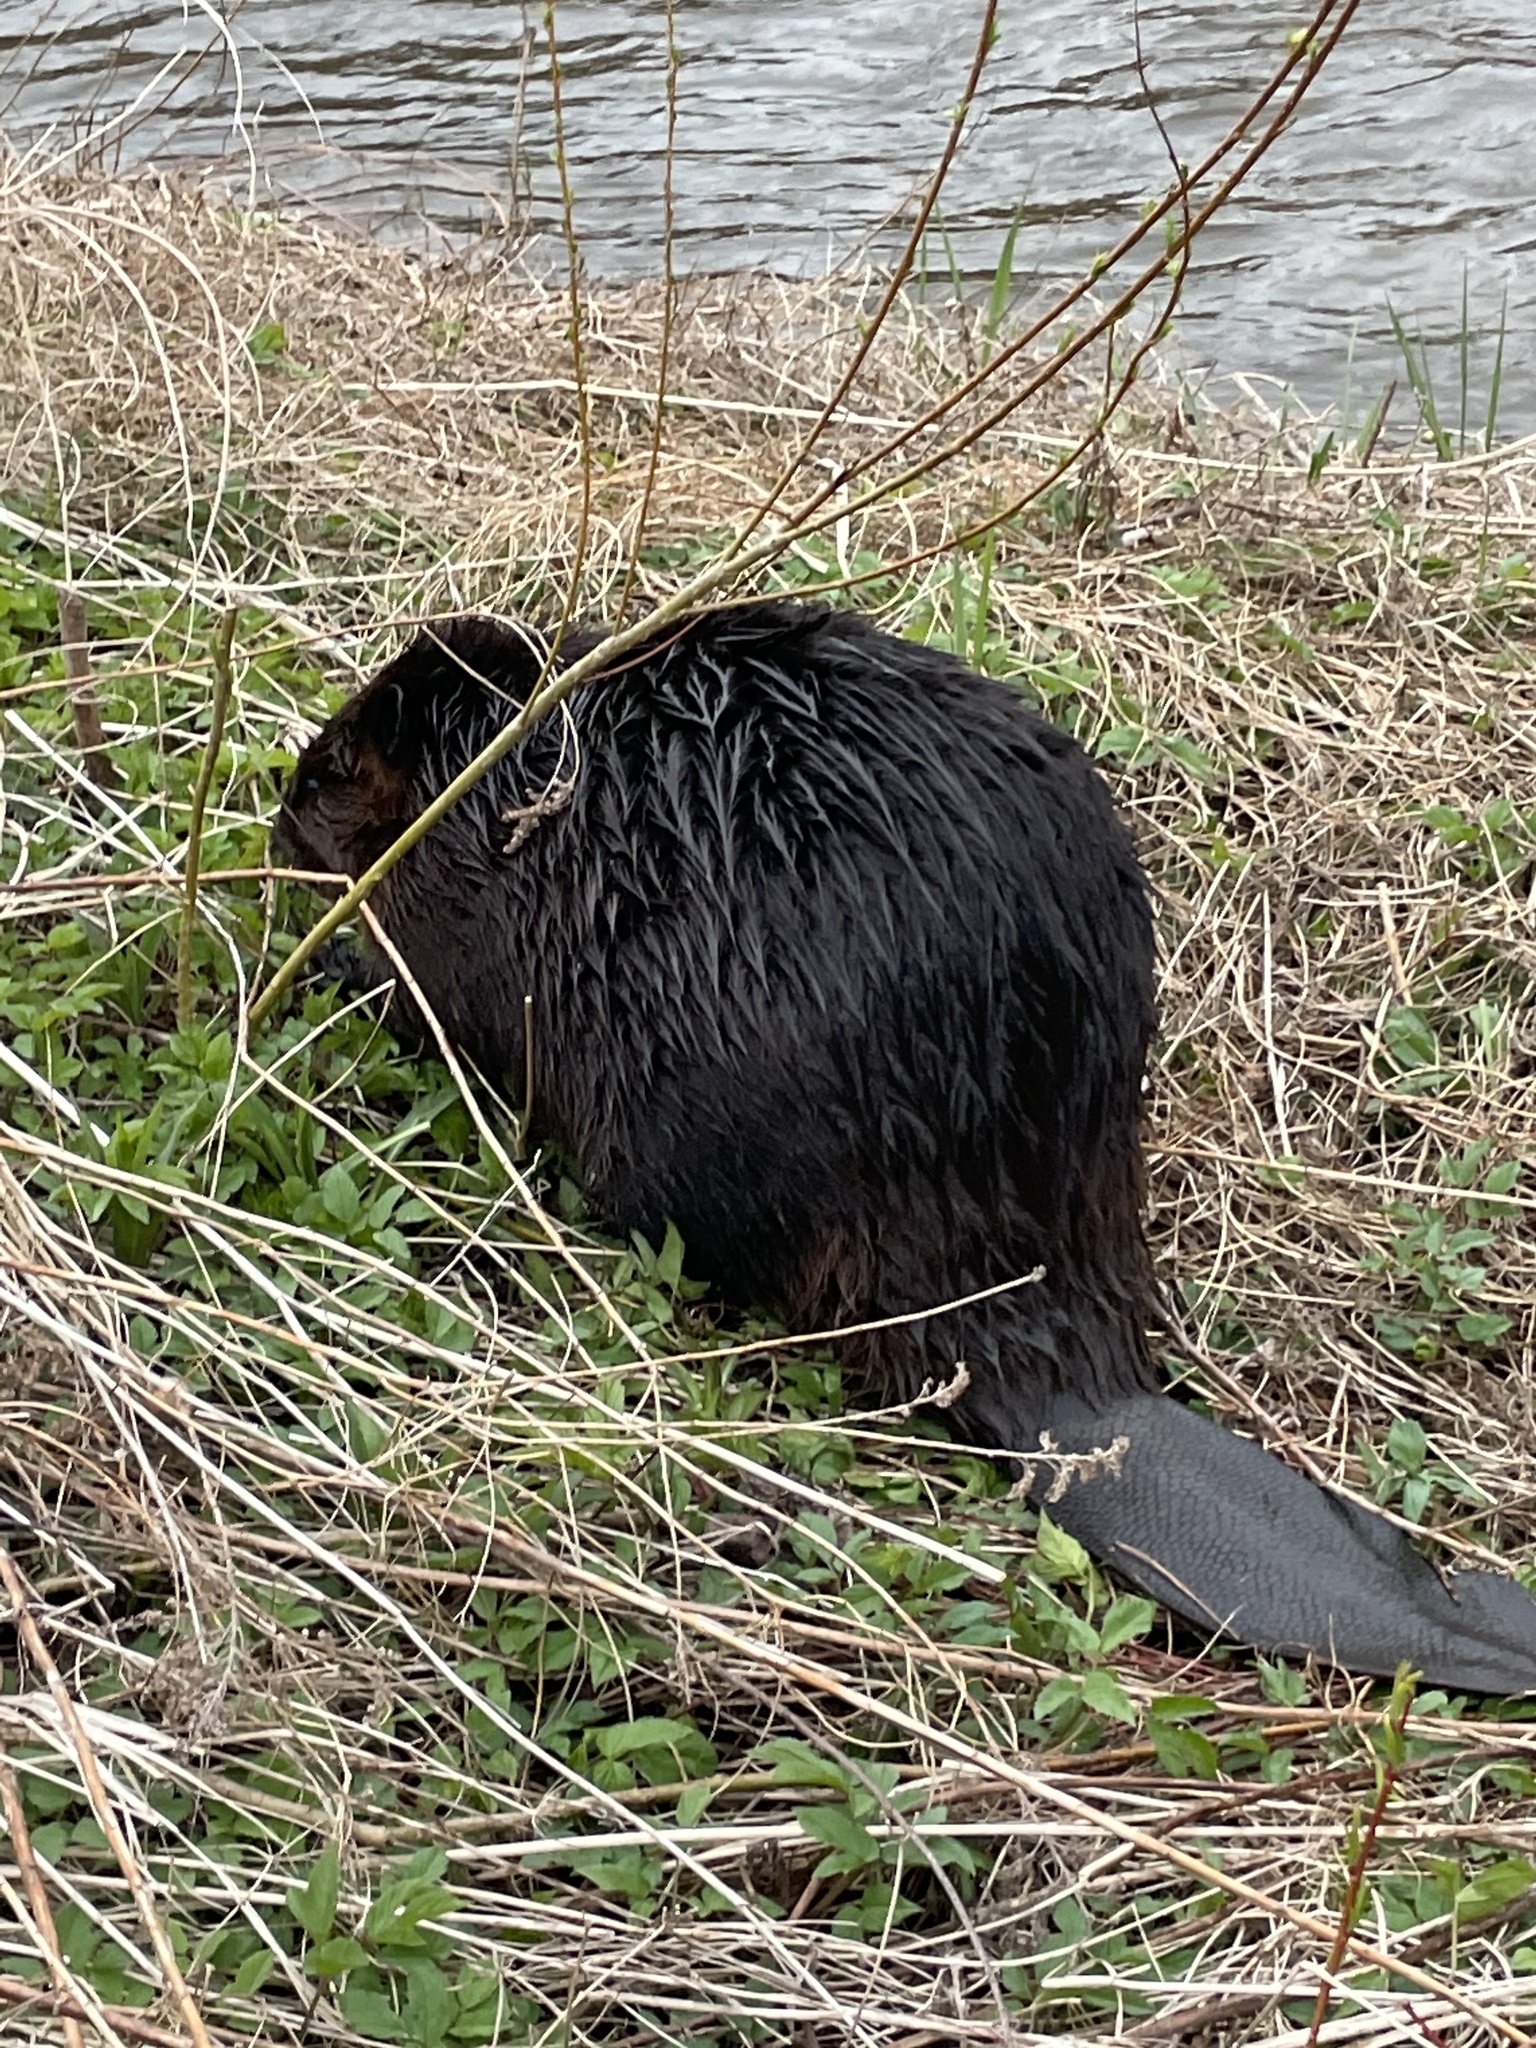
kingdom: Animalia
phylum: Chordata
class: Mammalia
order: Rodentia
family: Castoridae
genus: Castor
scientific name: Castor canadensis
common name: American beaver
